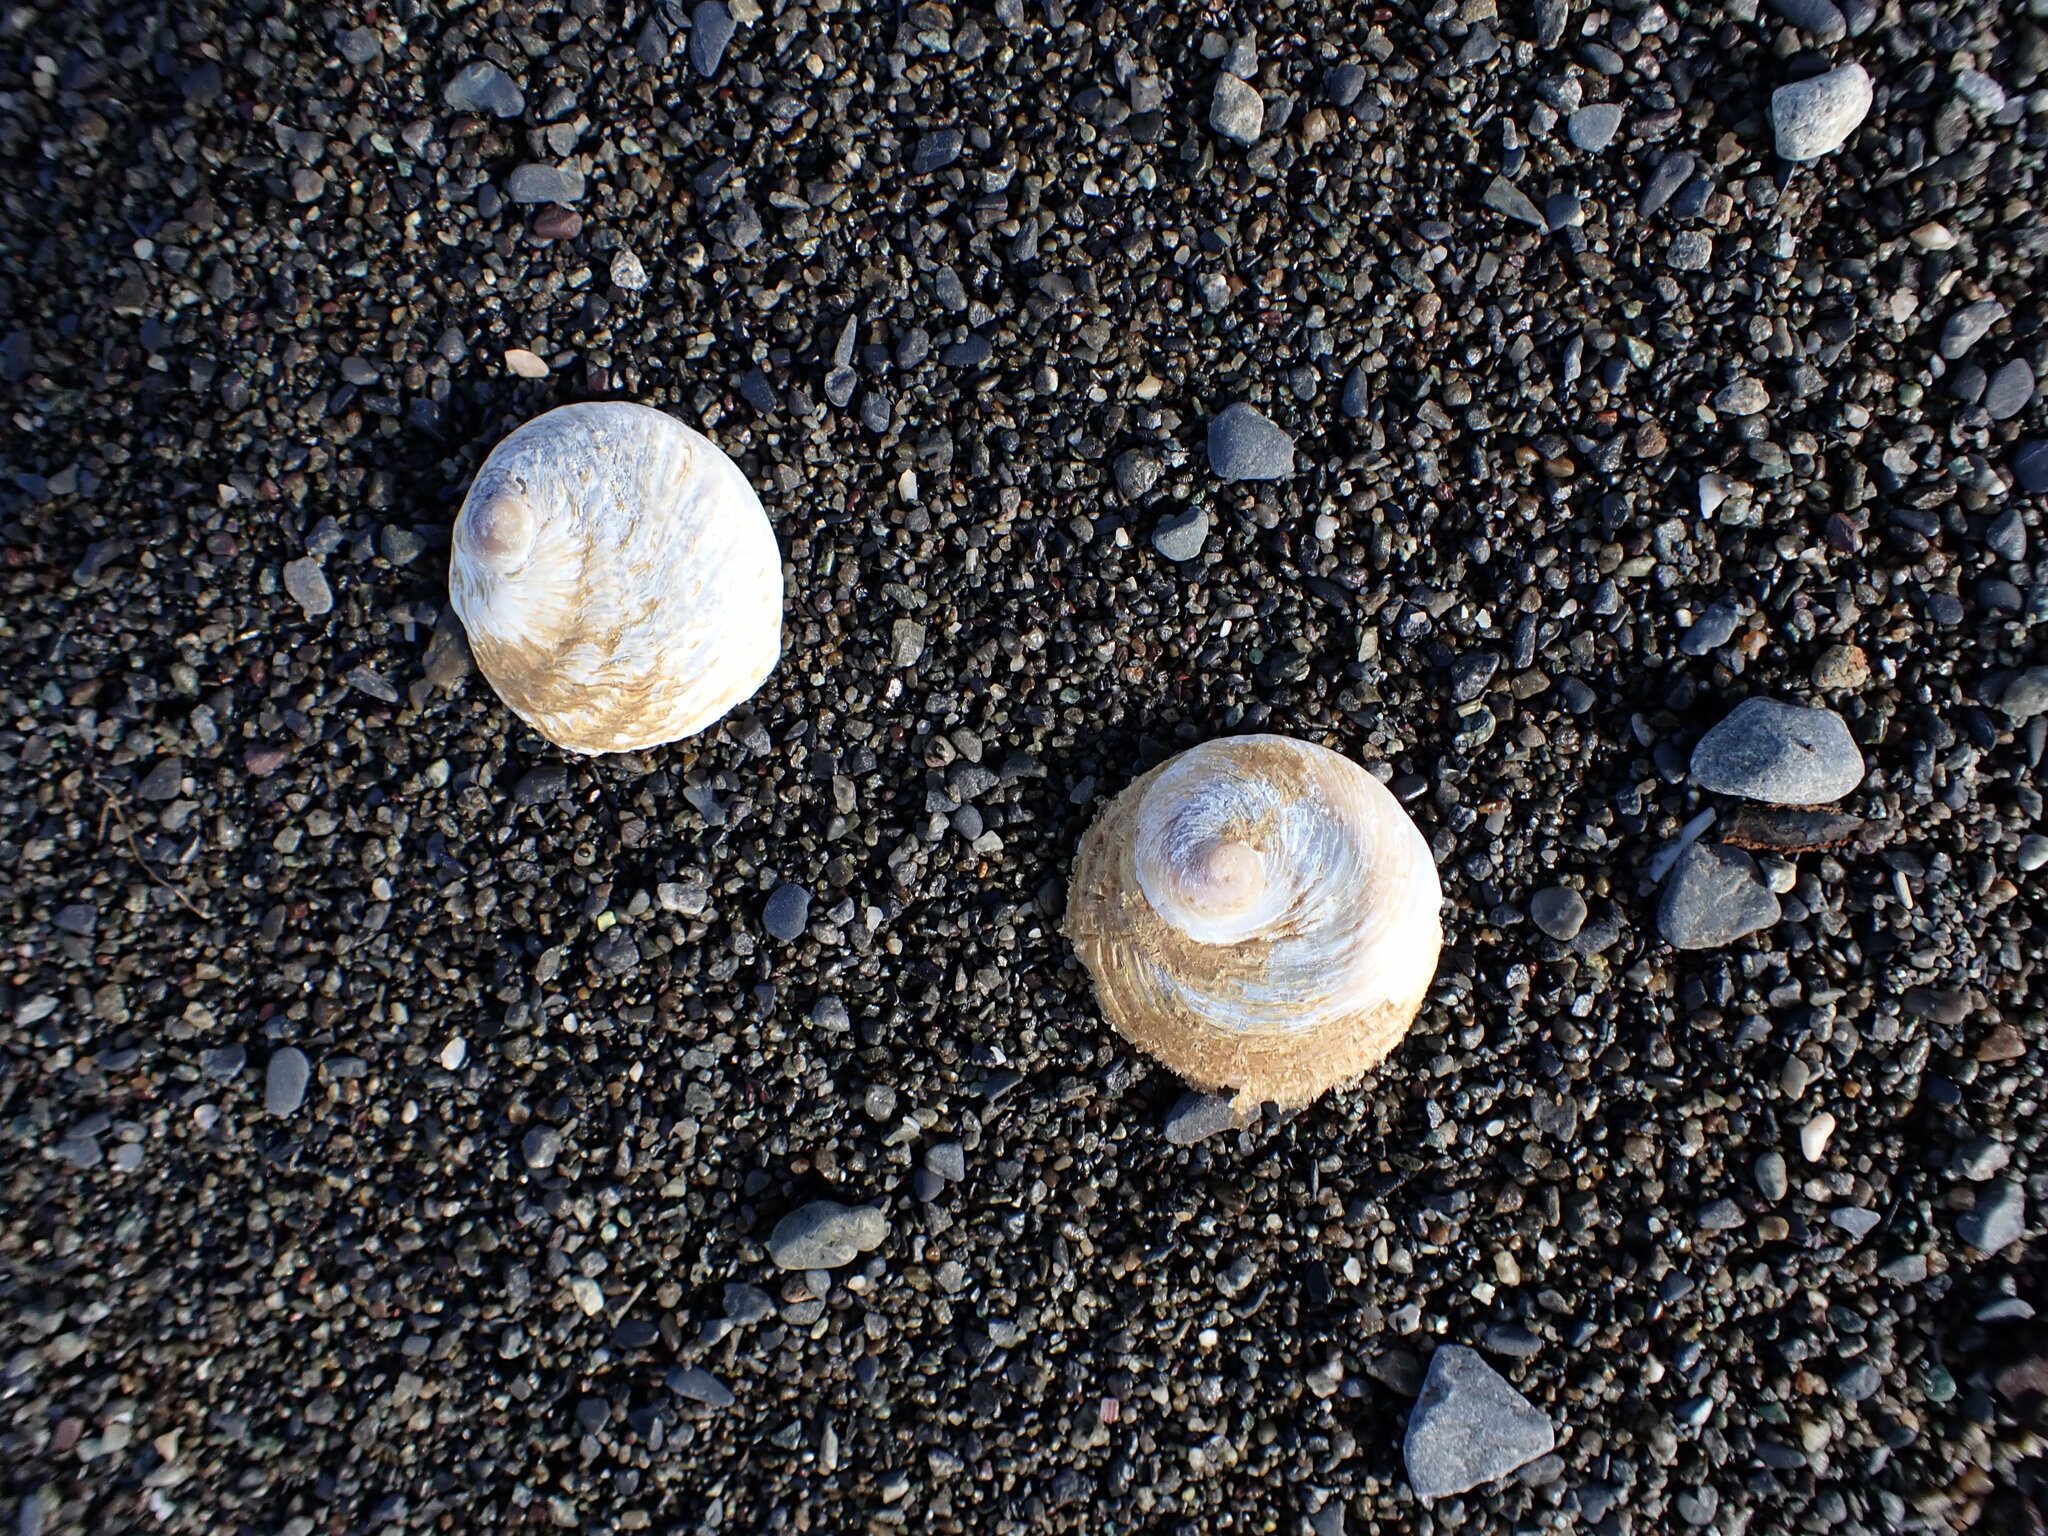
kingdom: Animalia
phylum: Mollusca
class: Gastropoda
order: Littorinimorpha
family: Calyptraeidae
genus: Sigapatella
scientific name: Sigapatella novaezelandiae
